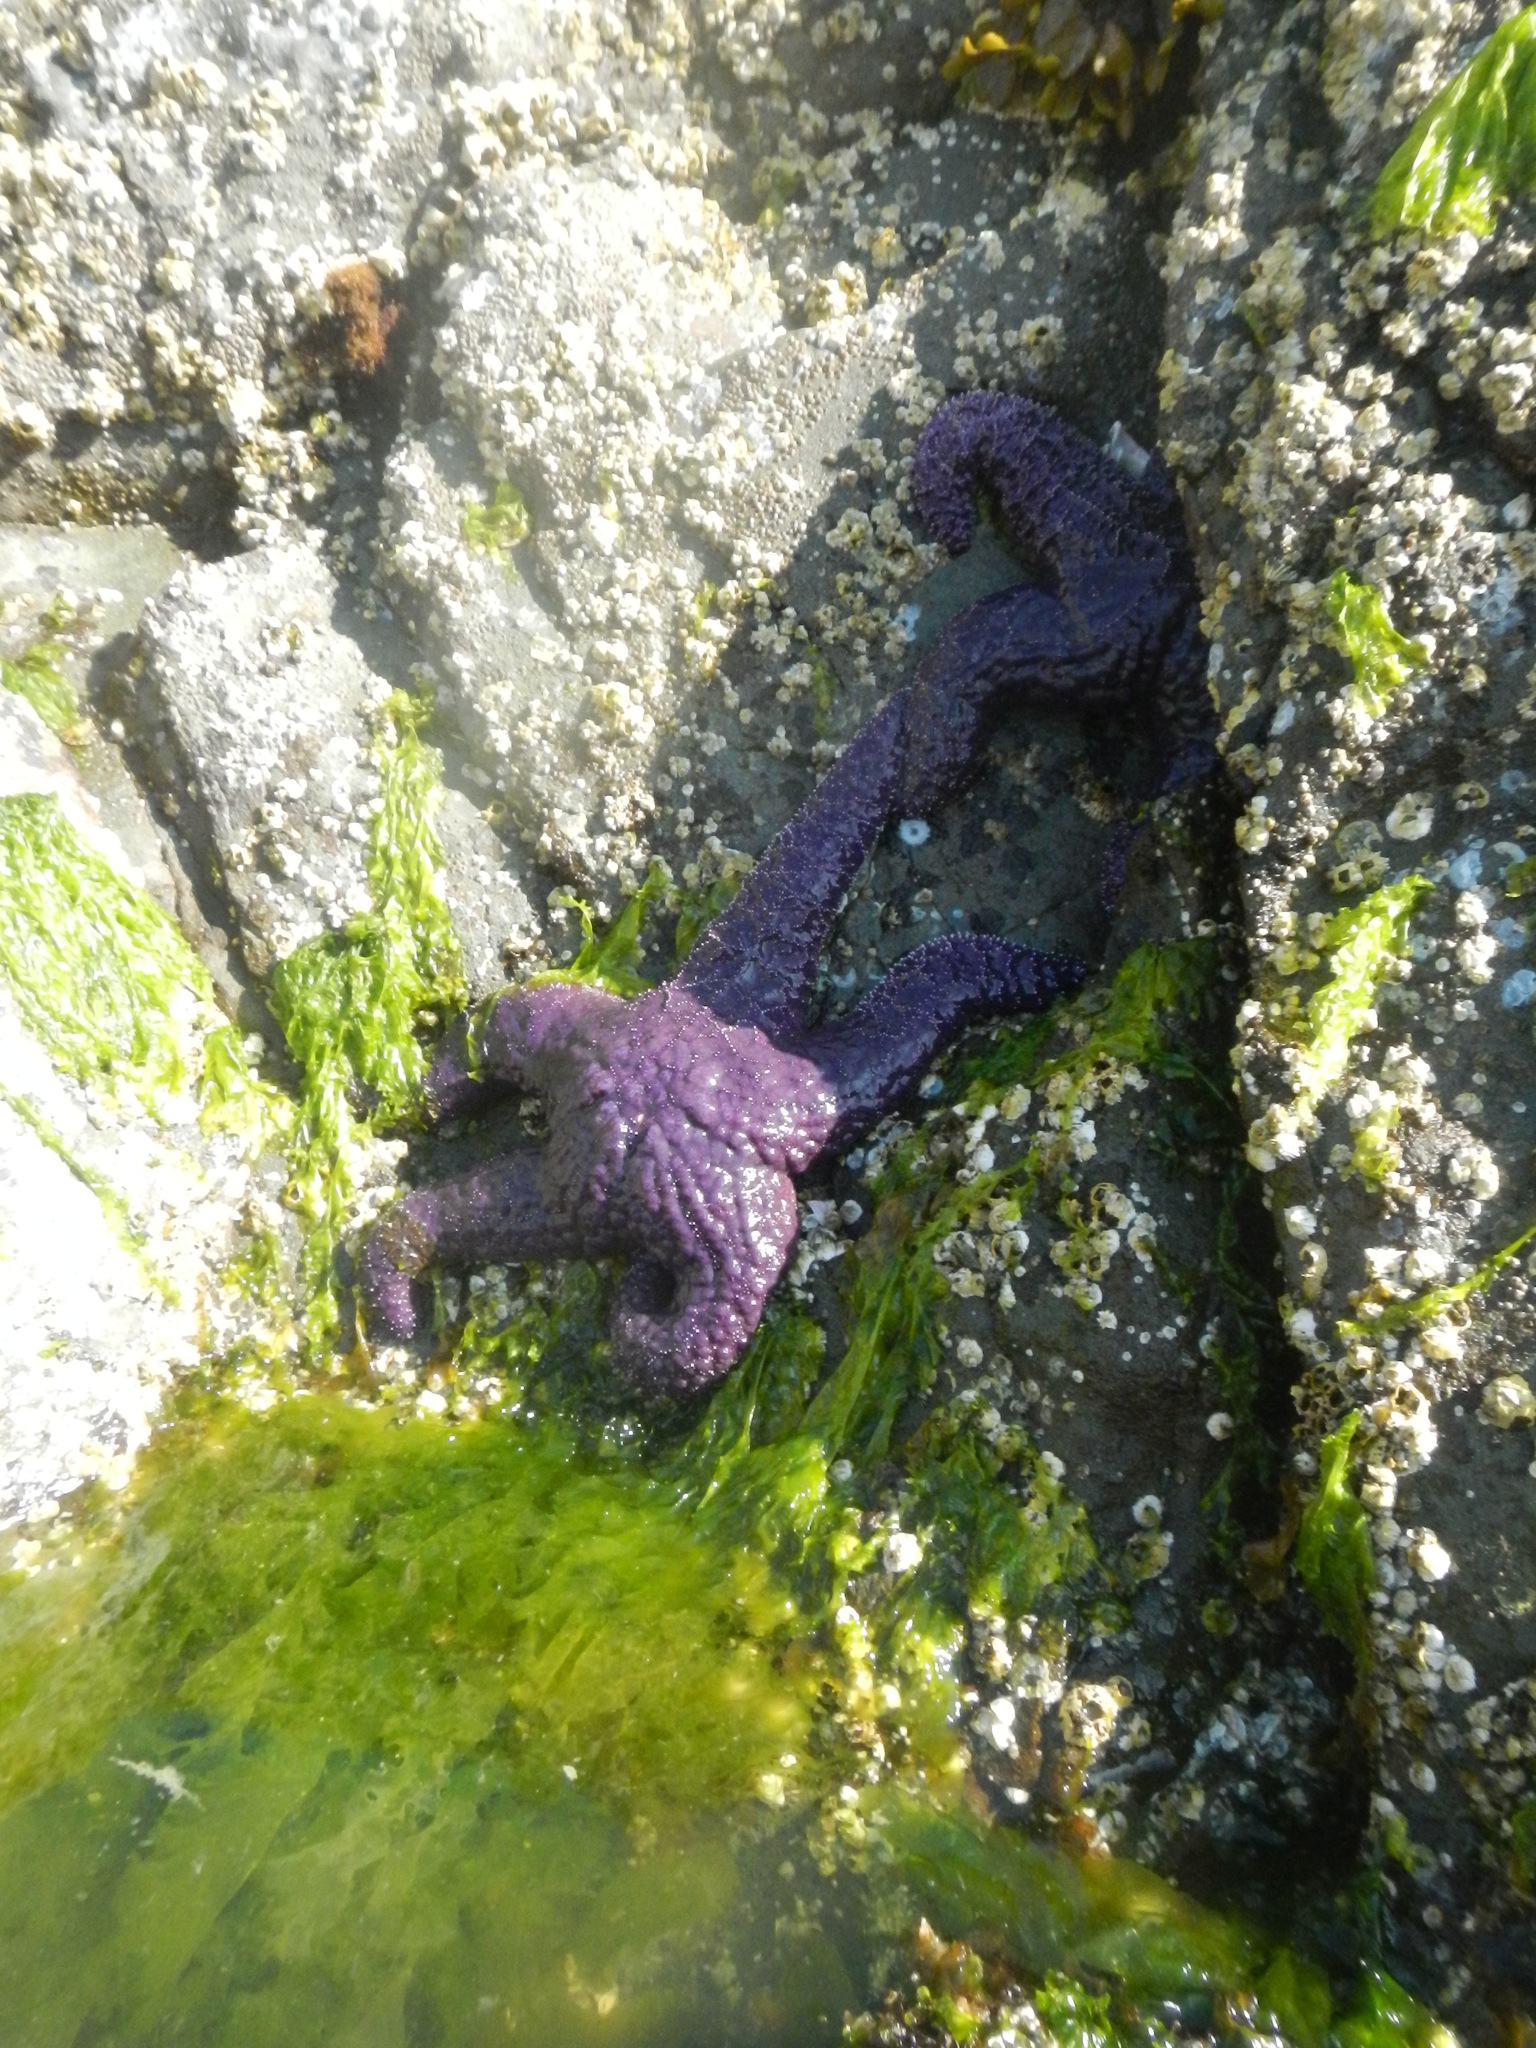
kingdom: Animalia
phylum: Echinodermata
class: Asteroidea
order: Forcipulatida
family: Asteriidae
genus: Pisaster
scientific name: Pisaster ochraceus
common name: Ochre stars
